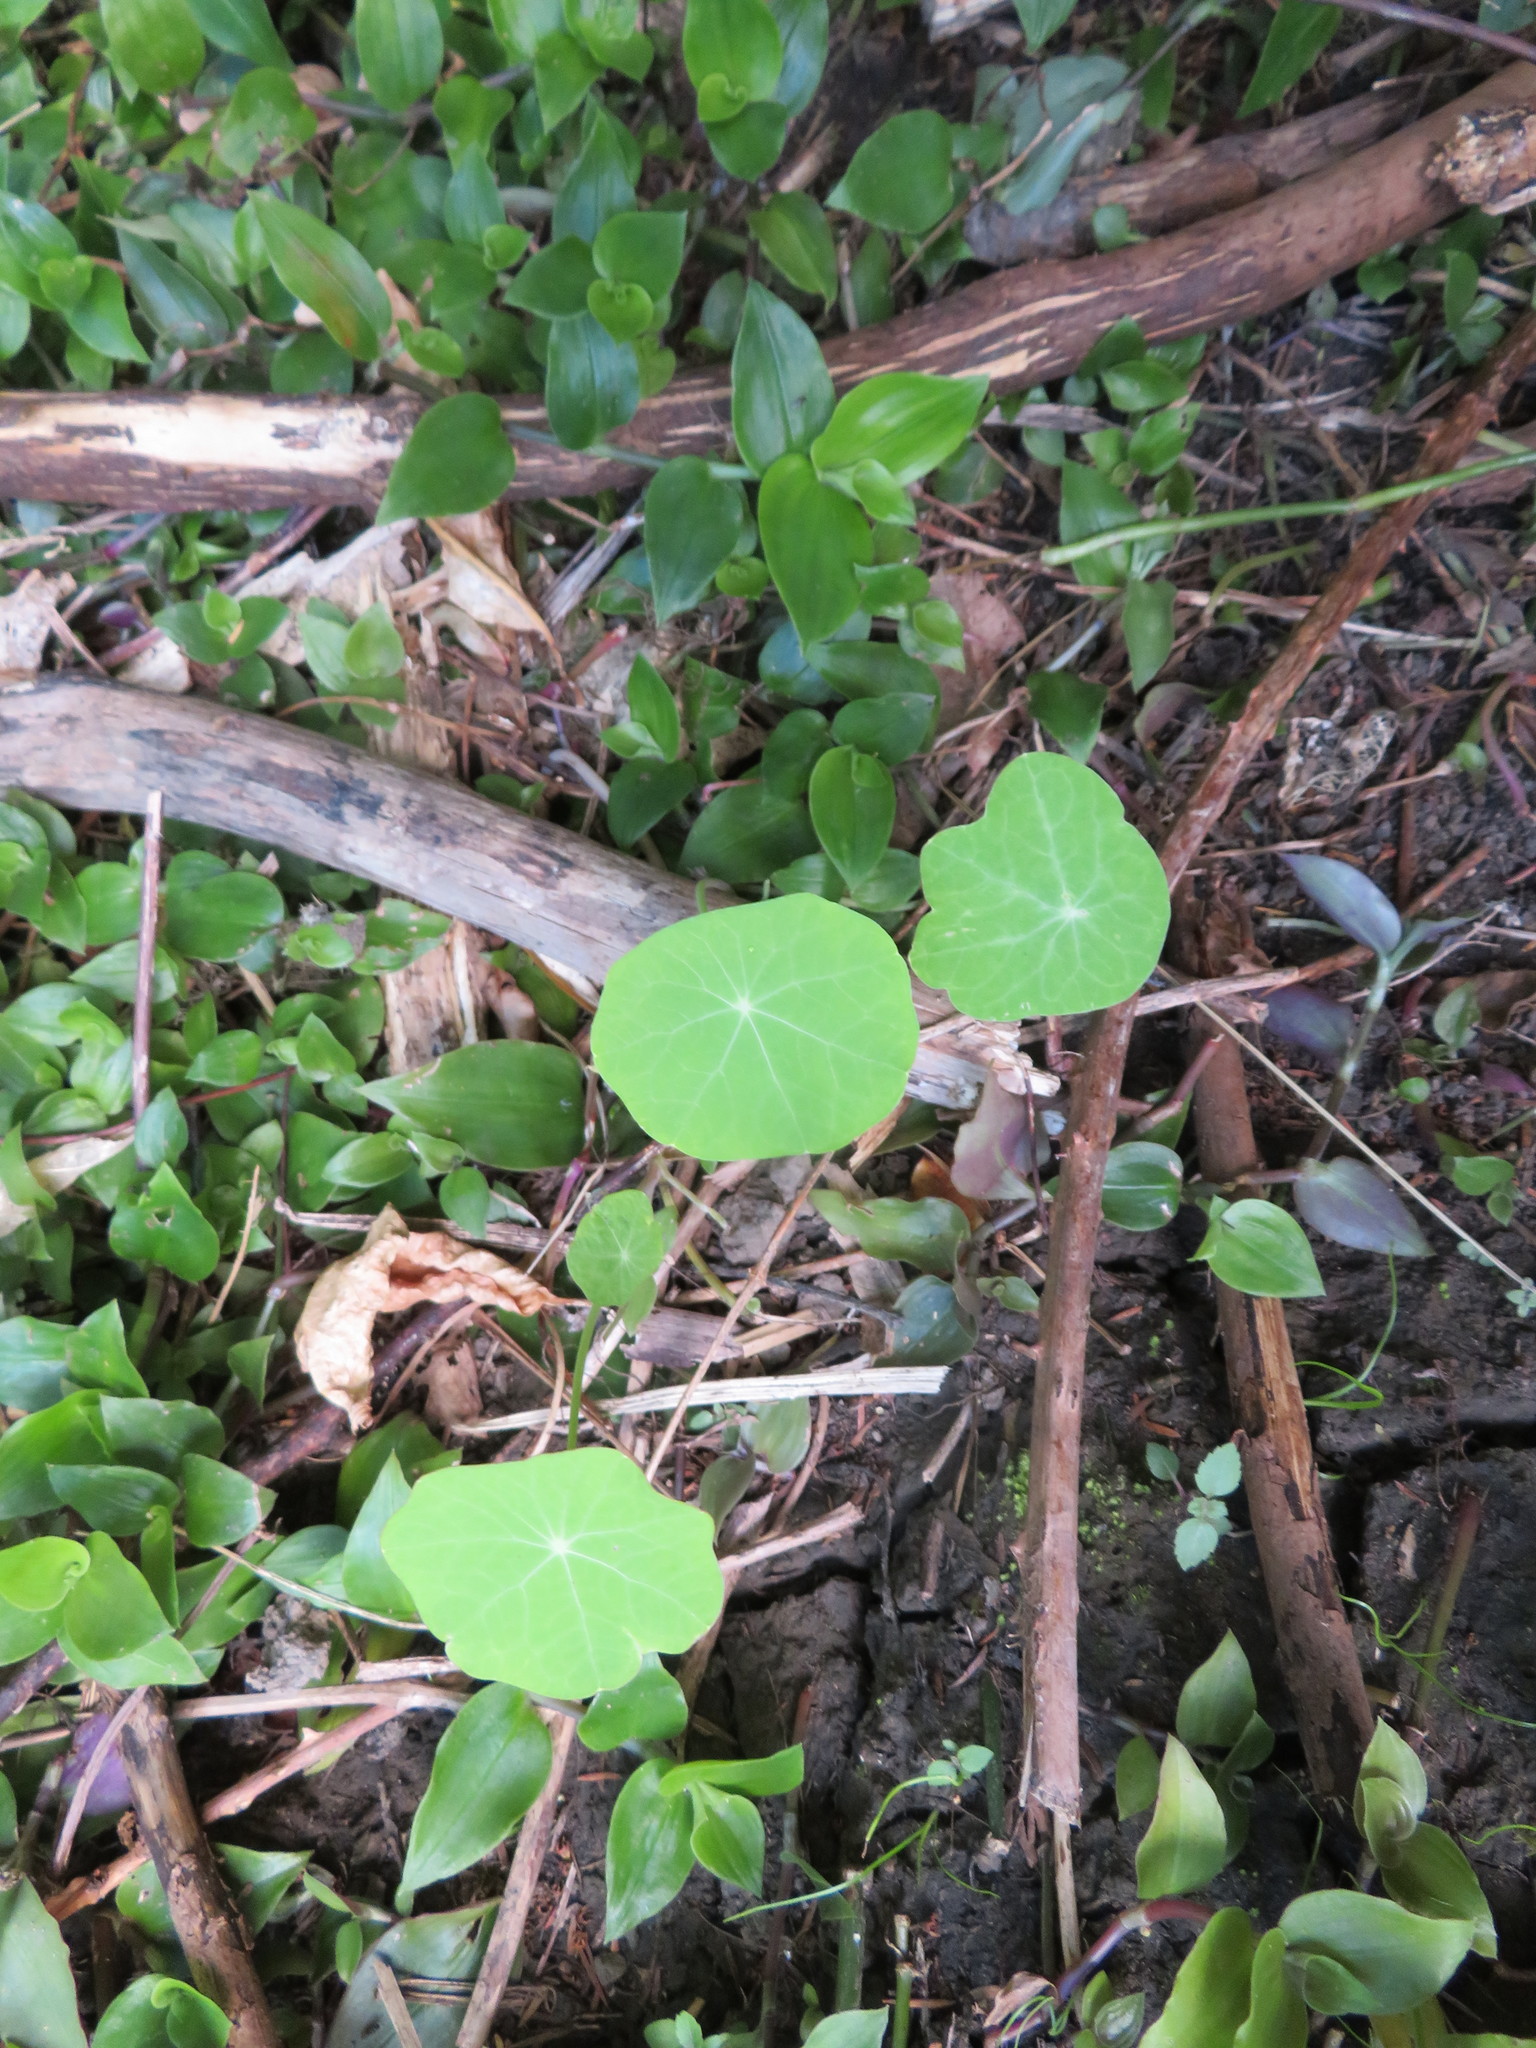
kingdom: Plantae
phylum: Tracheophyta
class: Magnoliopsida
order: Brassicales
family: Tropaeolaceae
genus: Tropaeolum
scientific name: Tropaeolum majus
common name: Nasturtium
